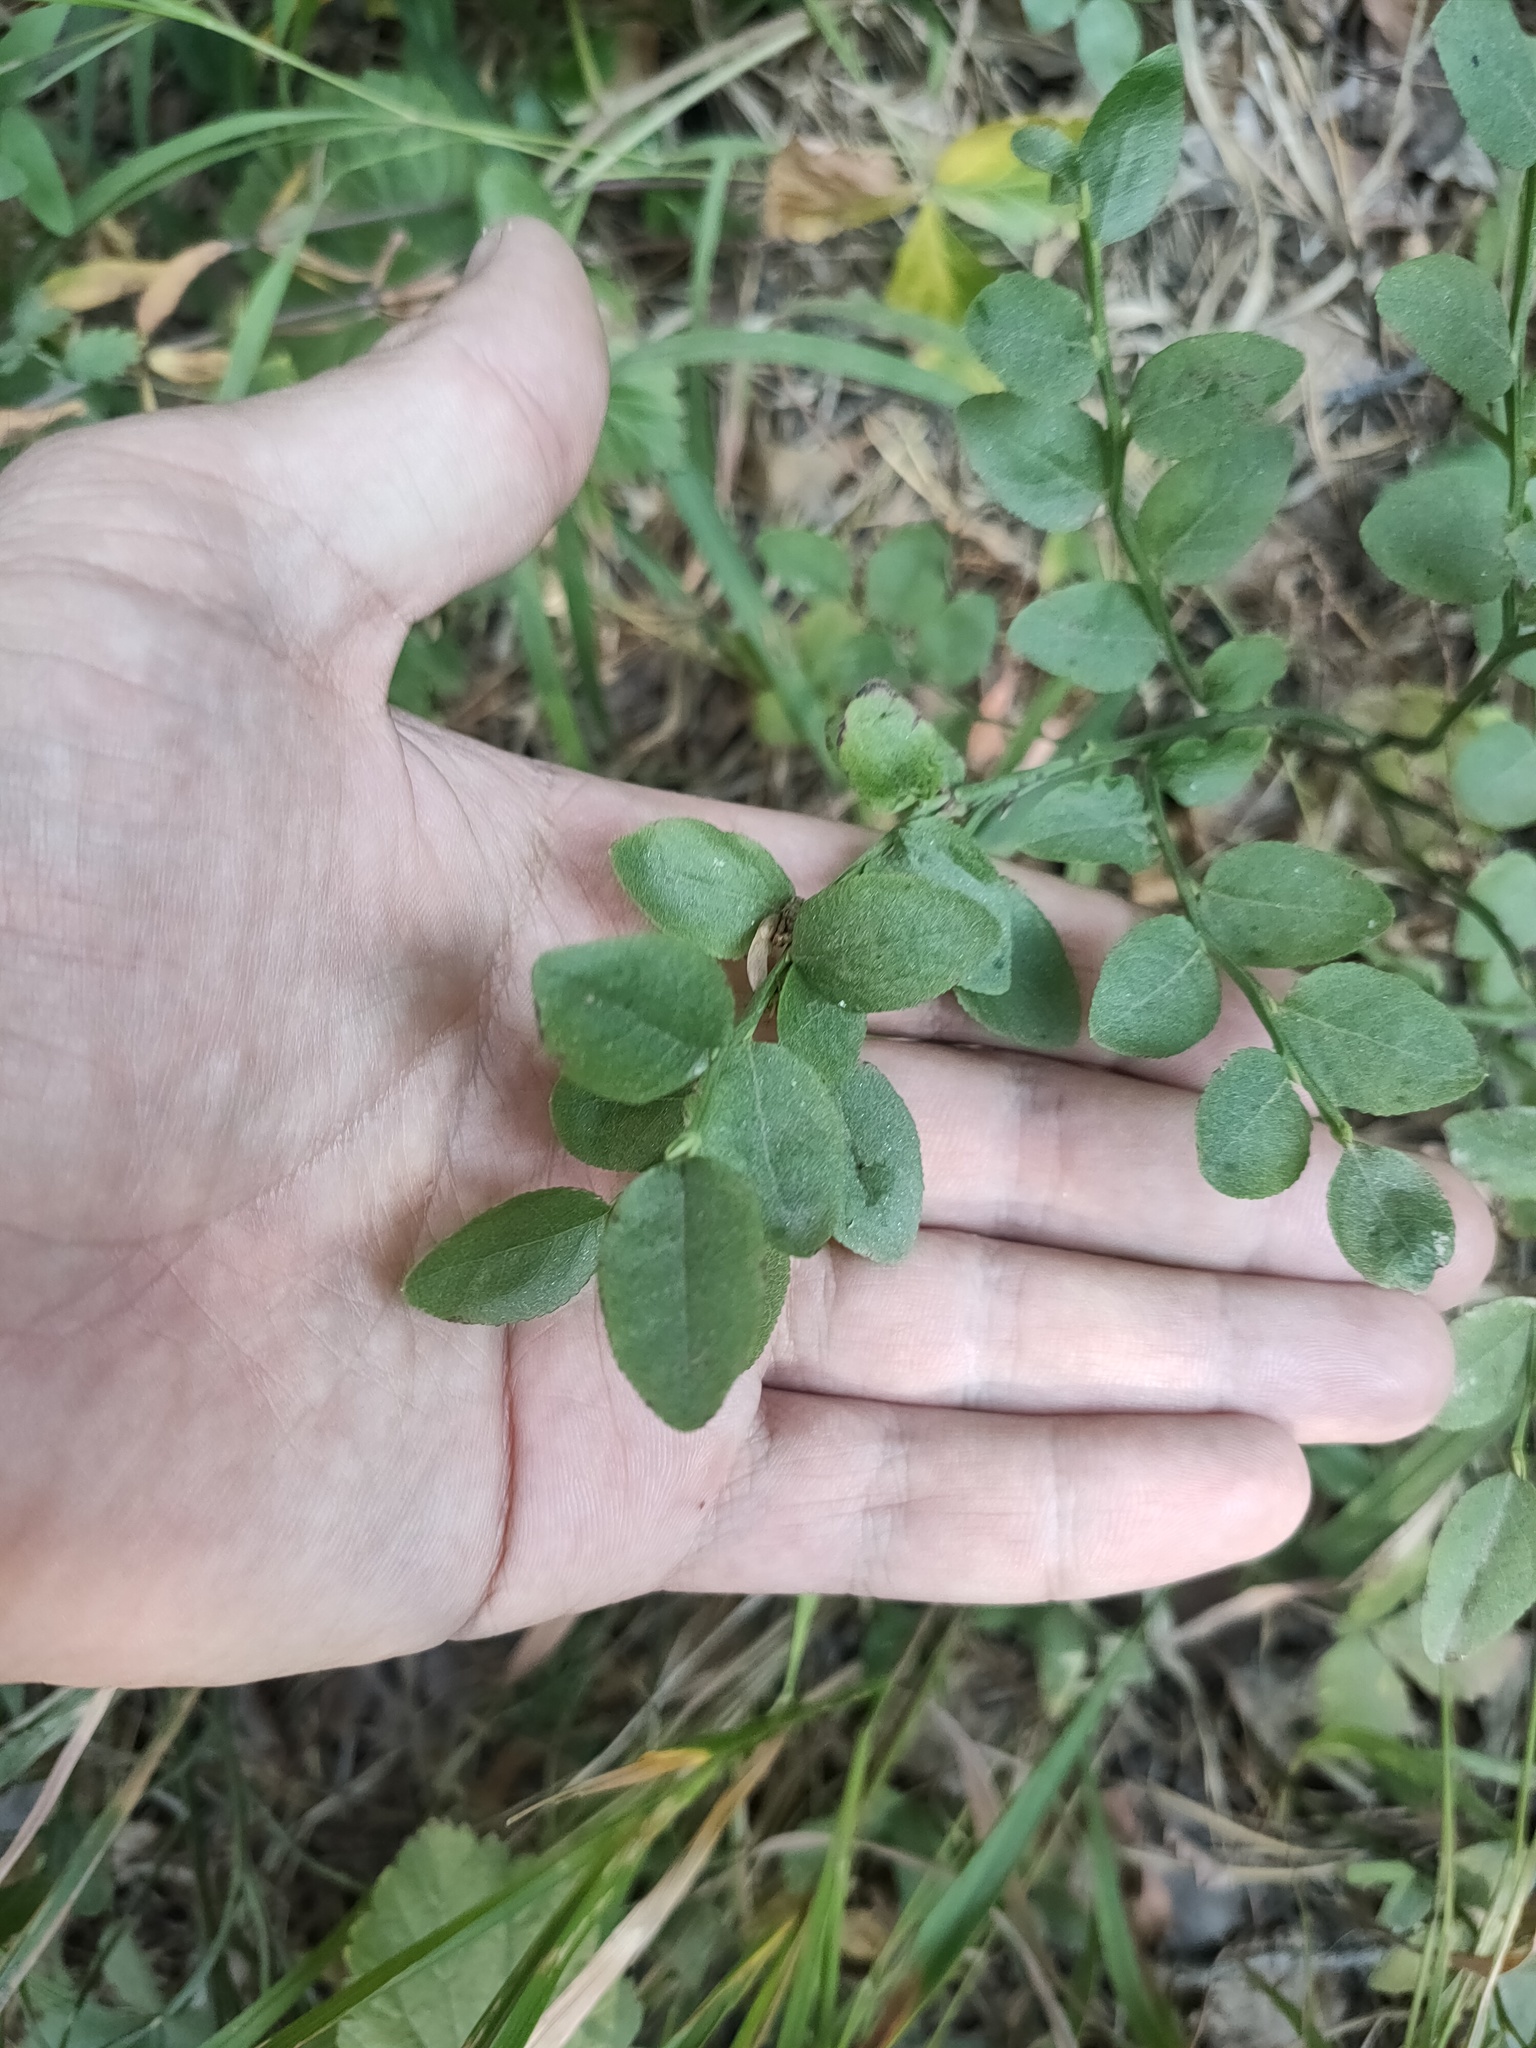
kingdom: Plantae
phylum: Tracheophyta
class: Magnoliopsida
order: Ericales
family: Ericaceae
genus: Vaccinium
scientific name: Vaccinium myrtillus
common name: Bilberry
